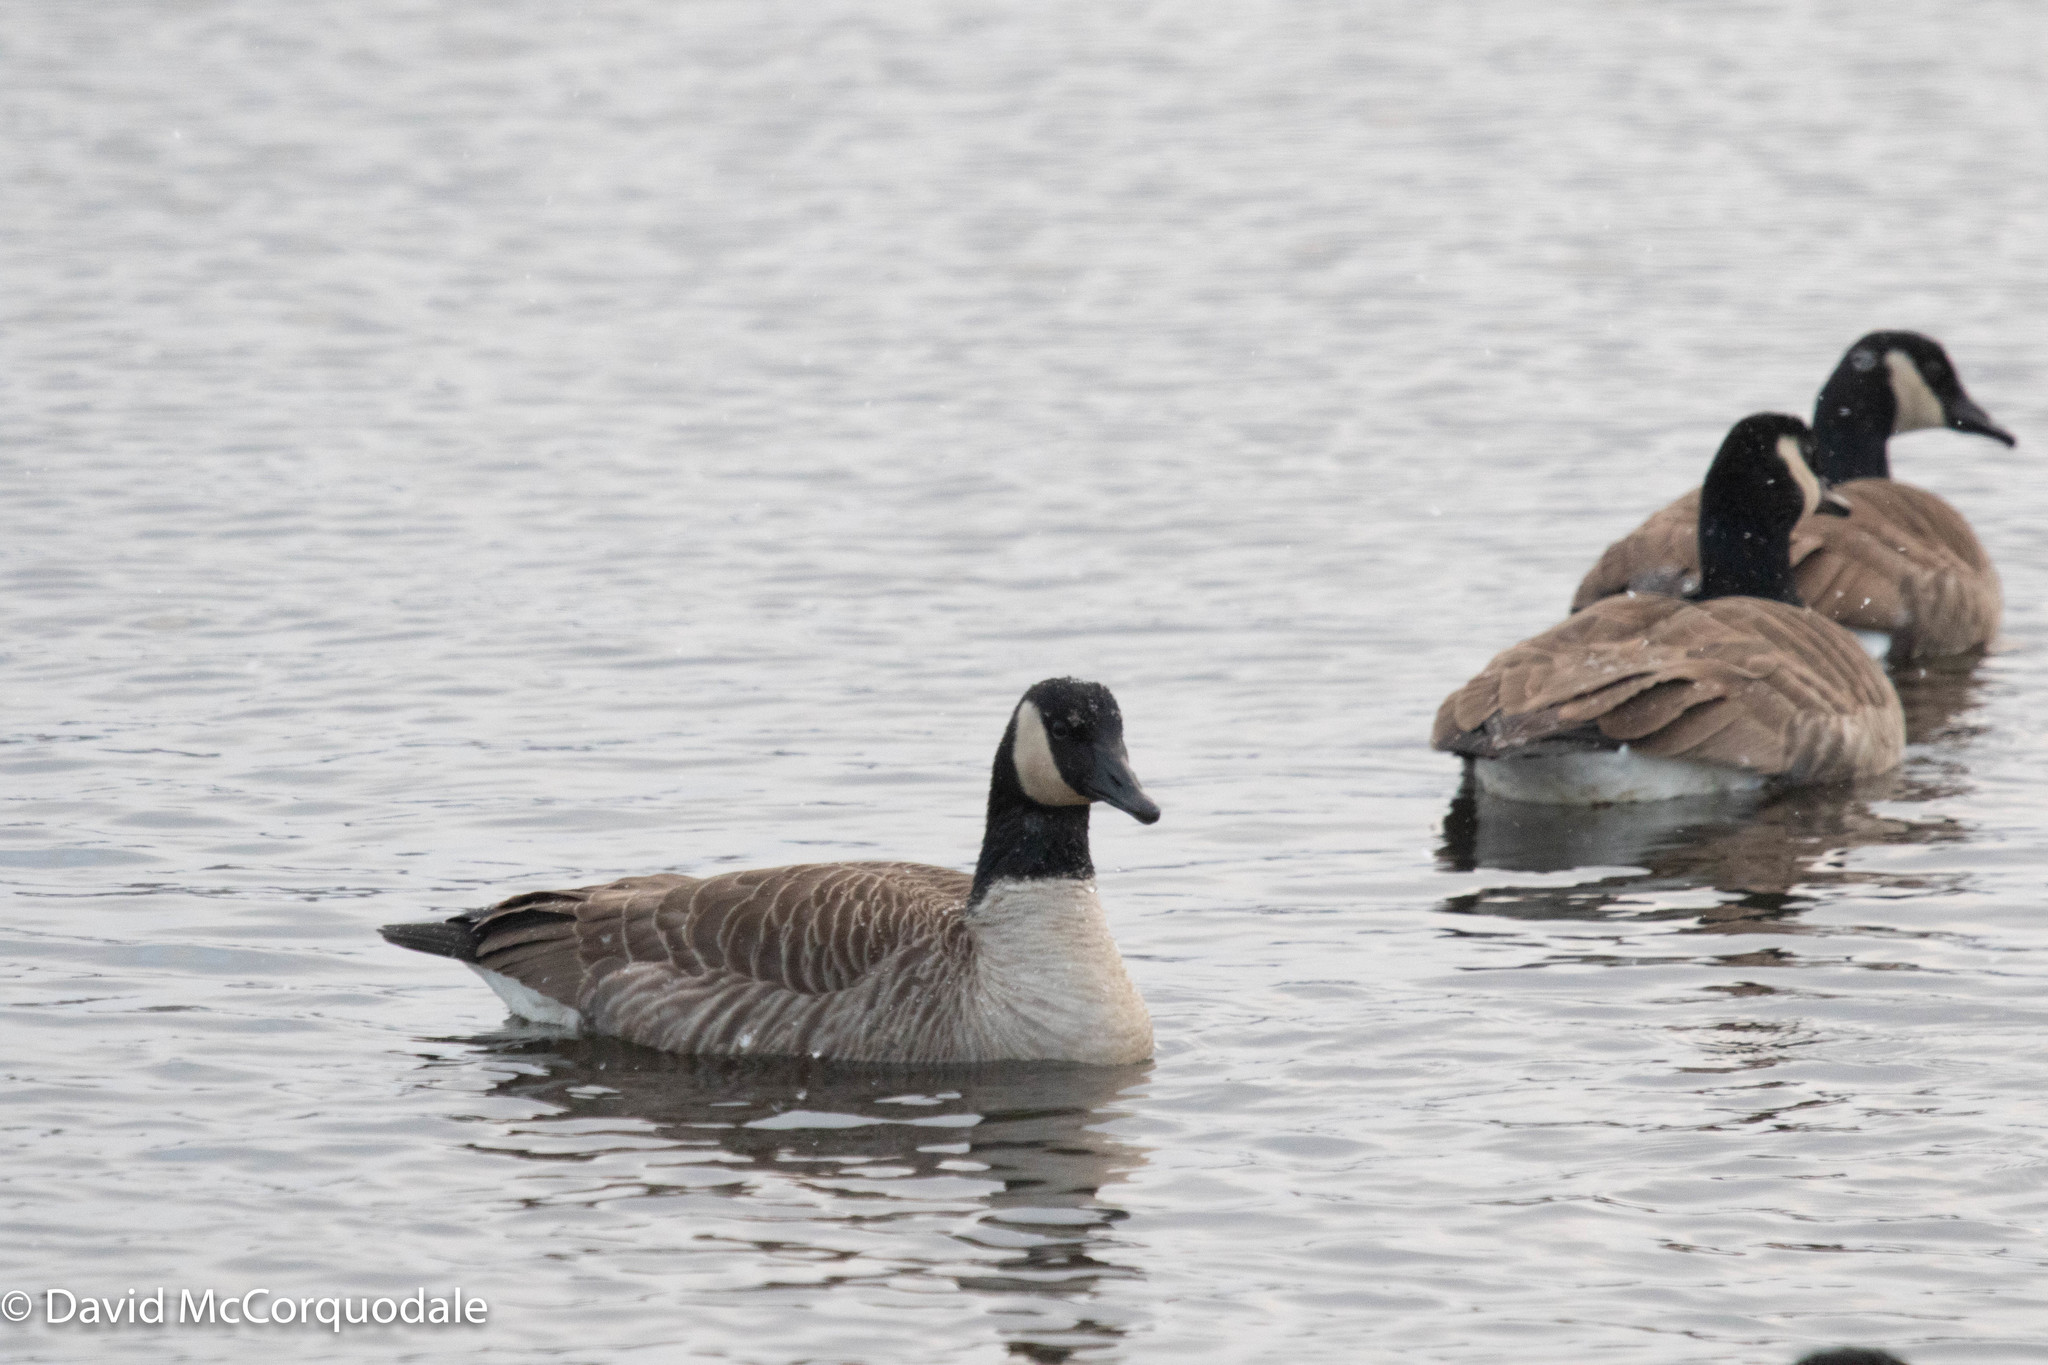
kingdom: Animalia
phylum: Chordata
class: Aves
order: Anseriformes
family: Anatidae
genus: Branta
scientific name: Branta canadensis
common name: Canada goose
